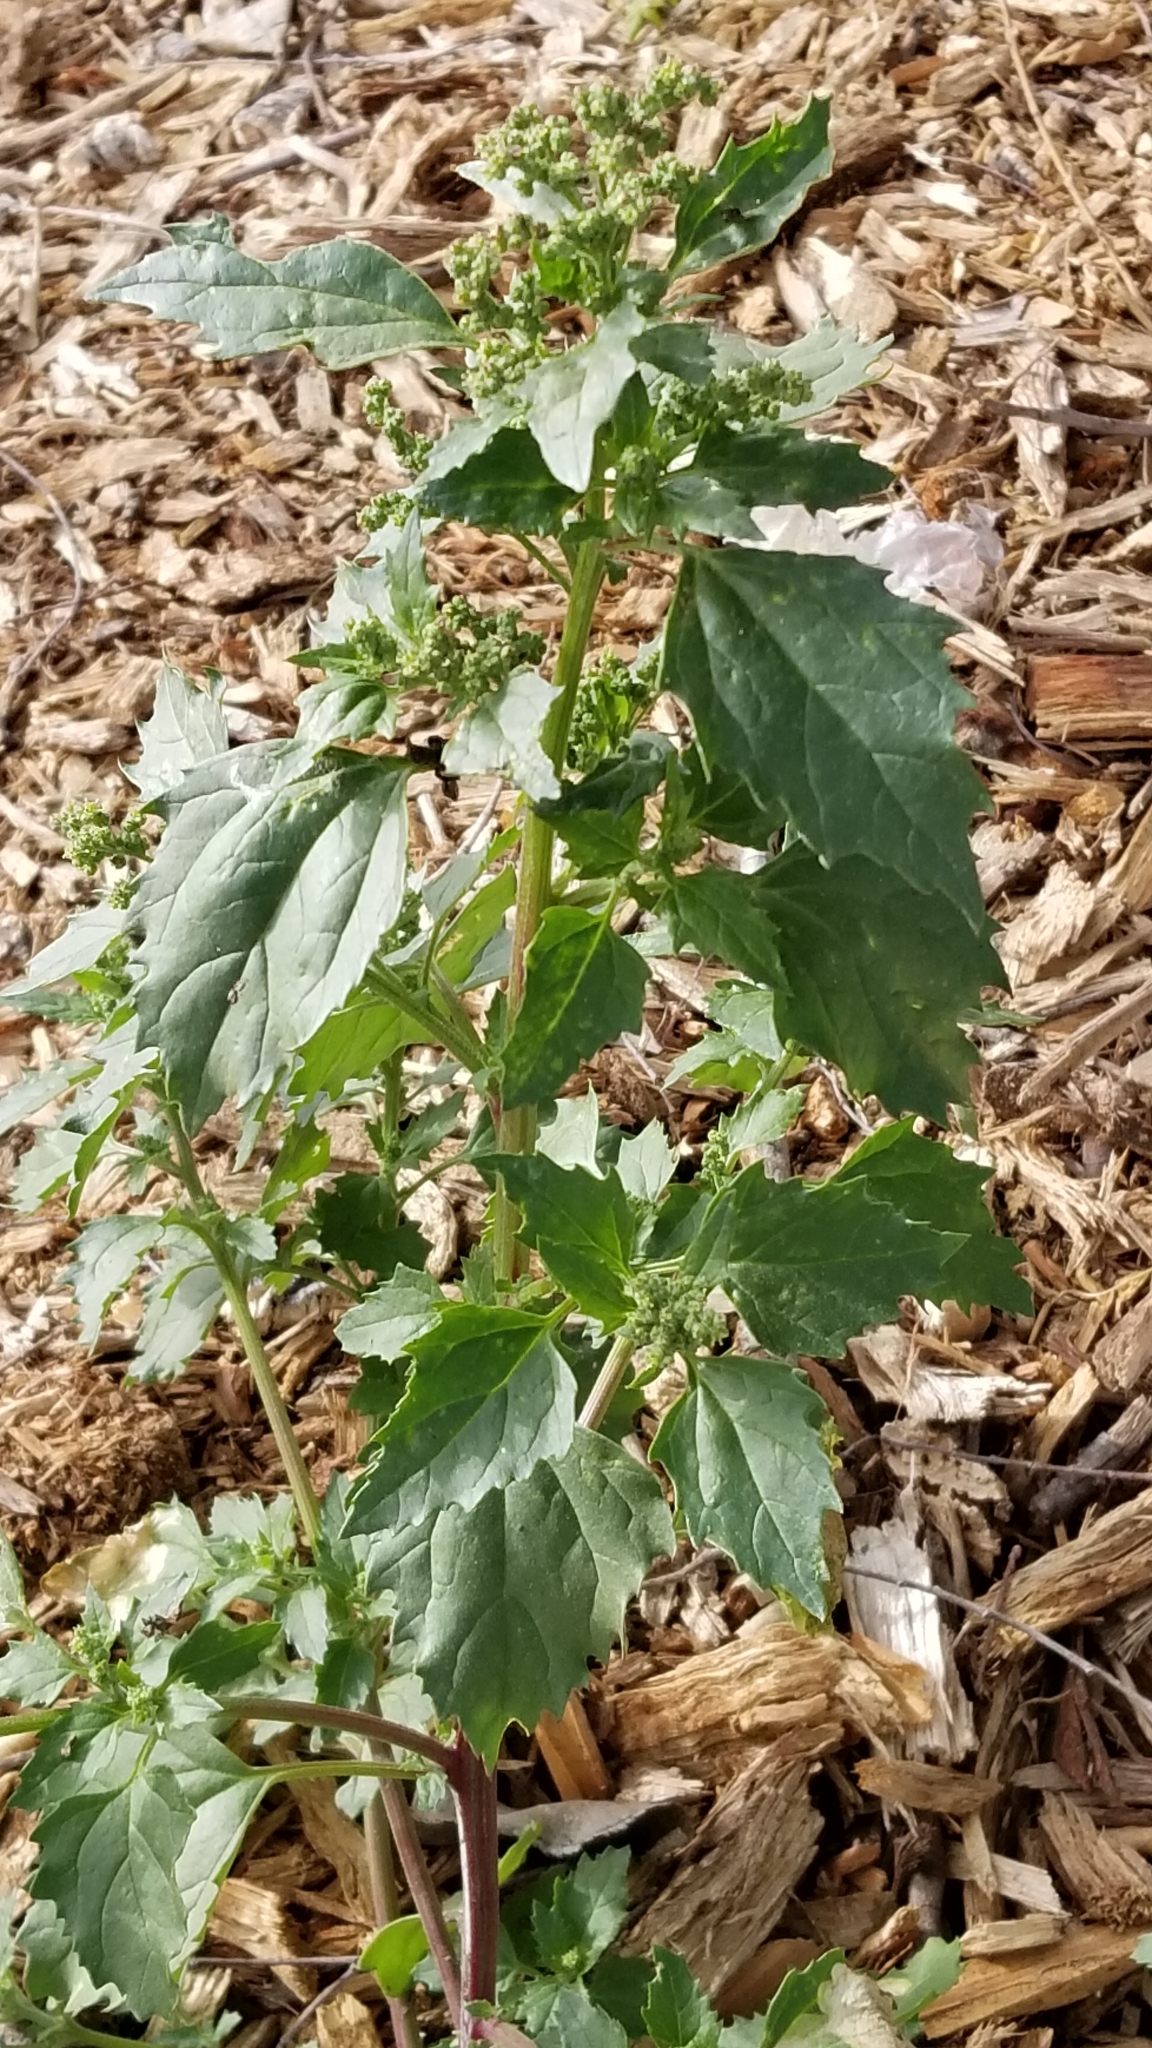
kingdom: Plantae
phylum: Tracheophyta
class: Magnoliopsida
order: Caryophyllales
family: Amaranthaceae
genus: Chenopodiastrum
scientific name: Chenopodiastrum murale
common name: Sowbane
